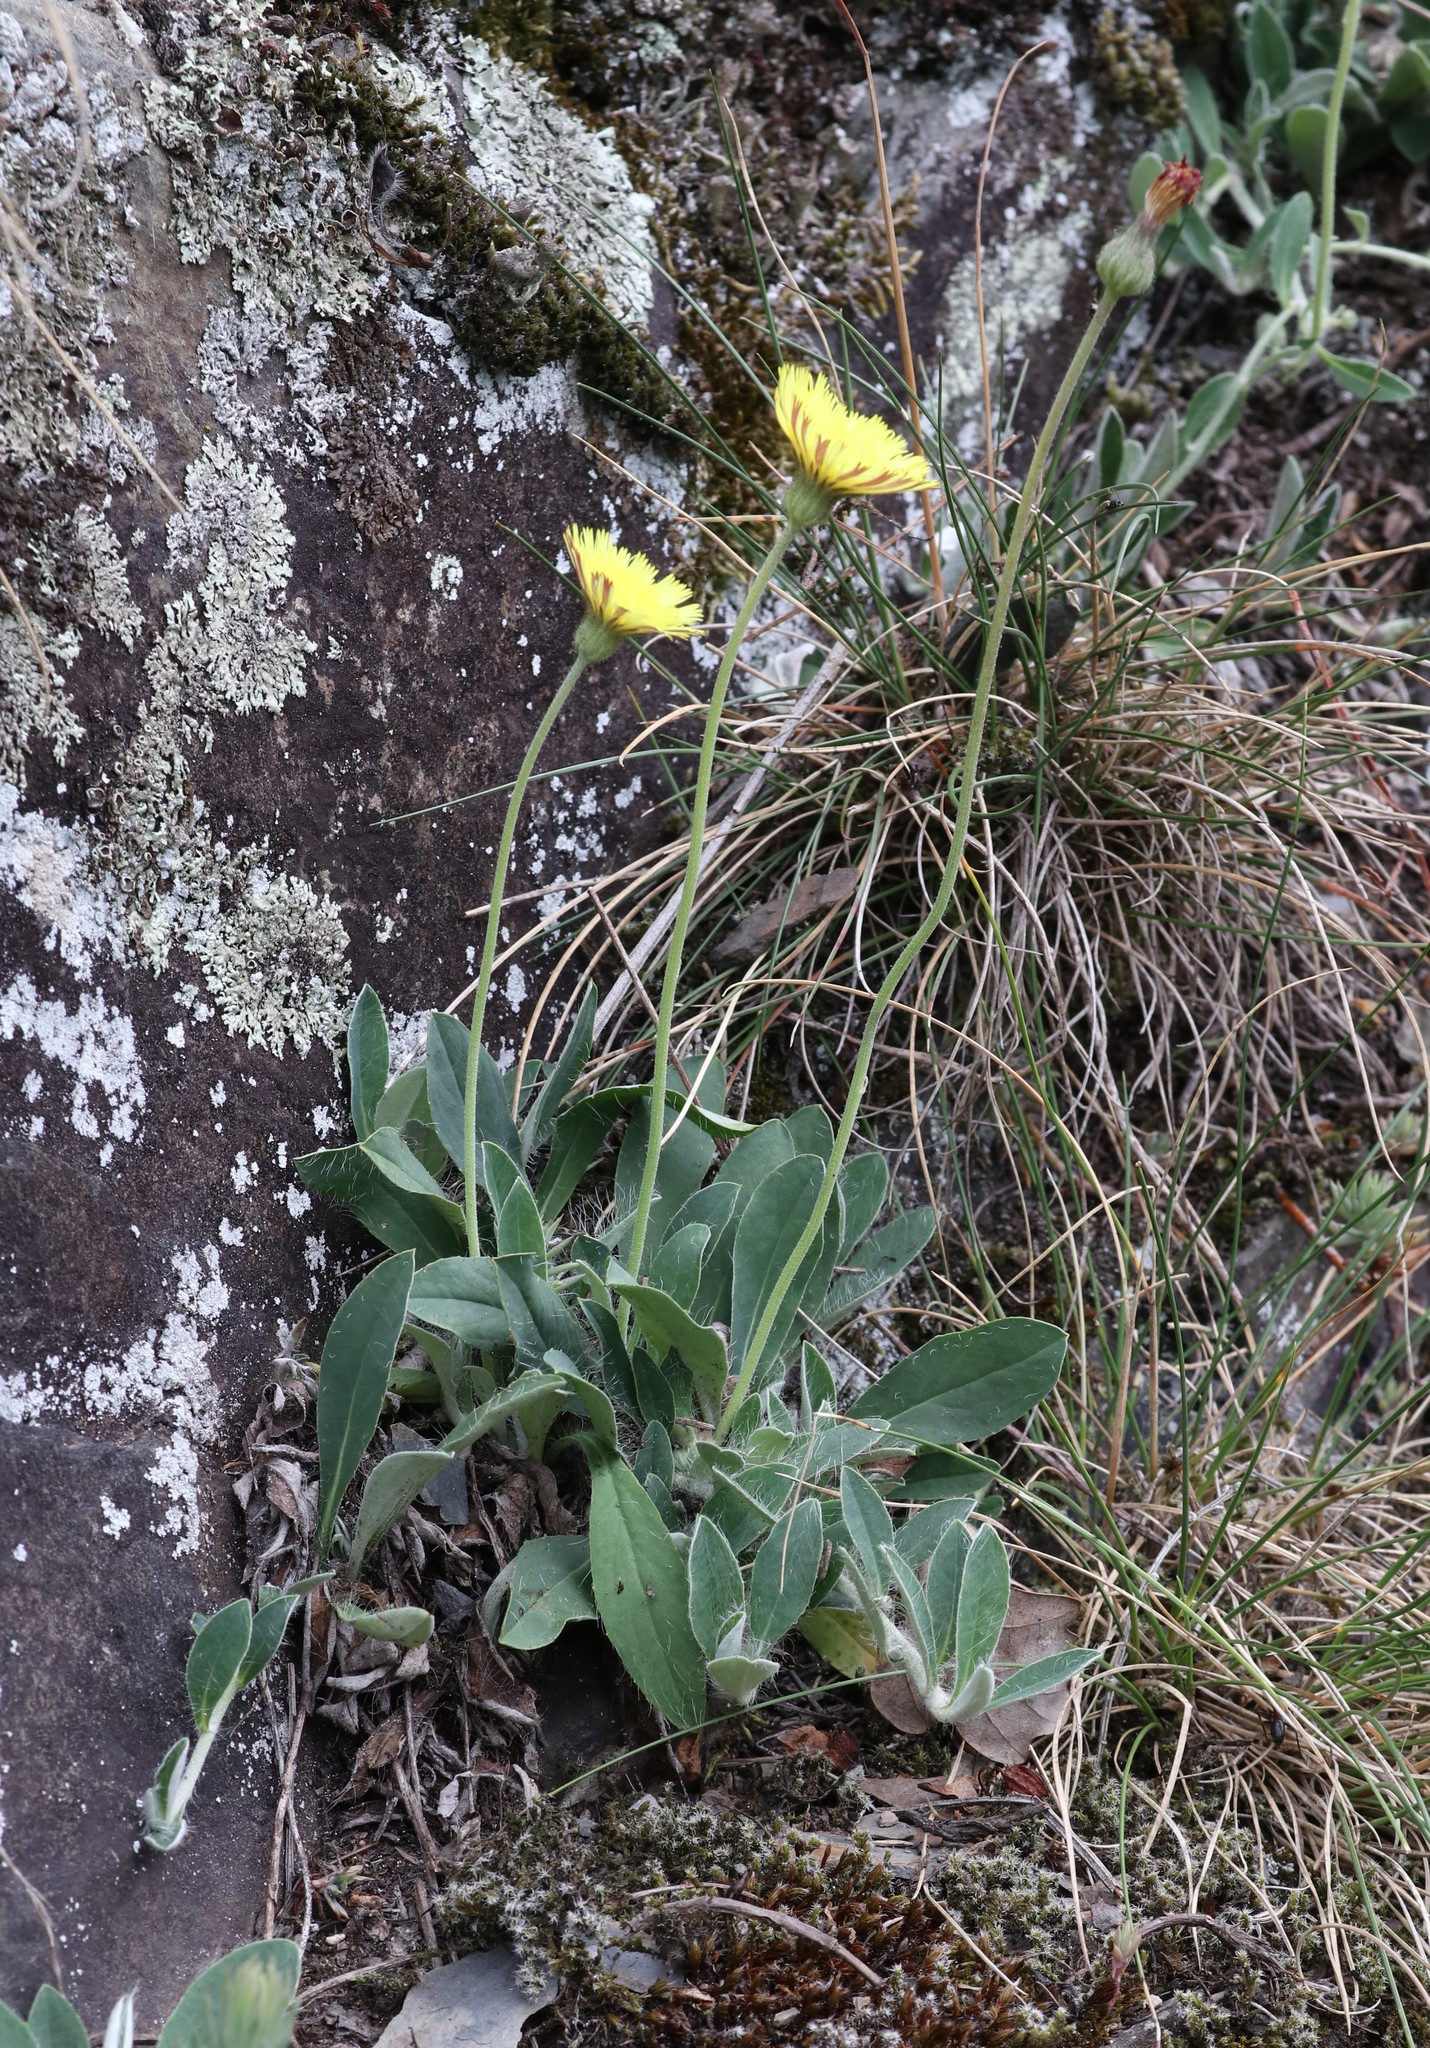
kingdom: Plantae
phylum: Tracheophyta
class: Magnoliopsida
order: Asterales
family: Asteraceae
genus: Pilosella
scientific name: Pilosella officinarum
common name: Mouse-ear hawkweed
